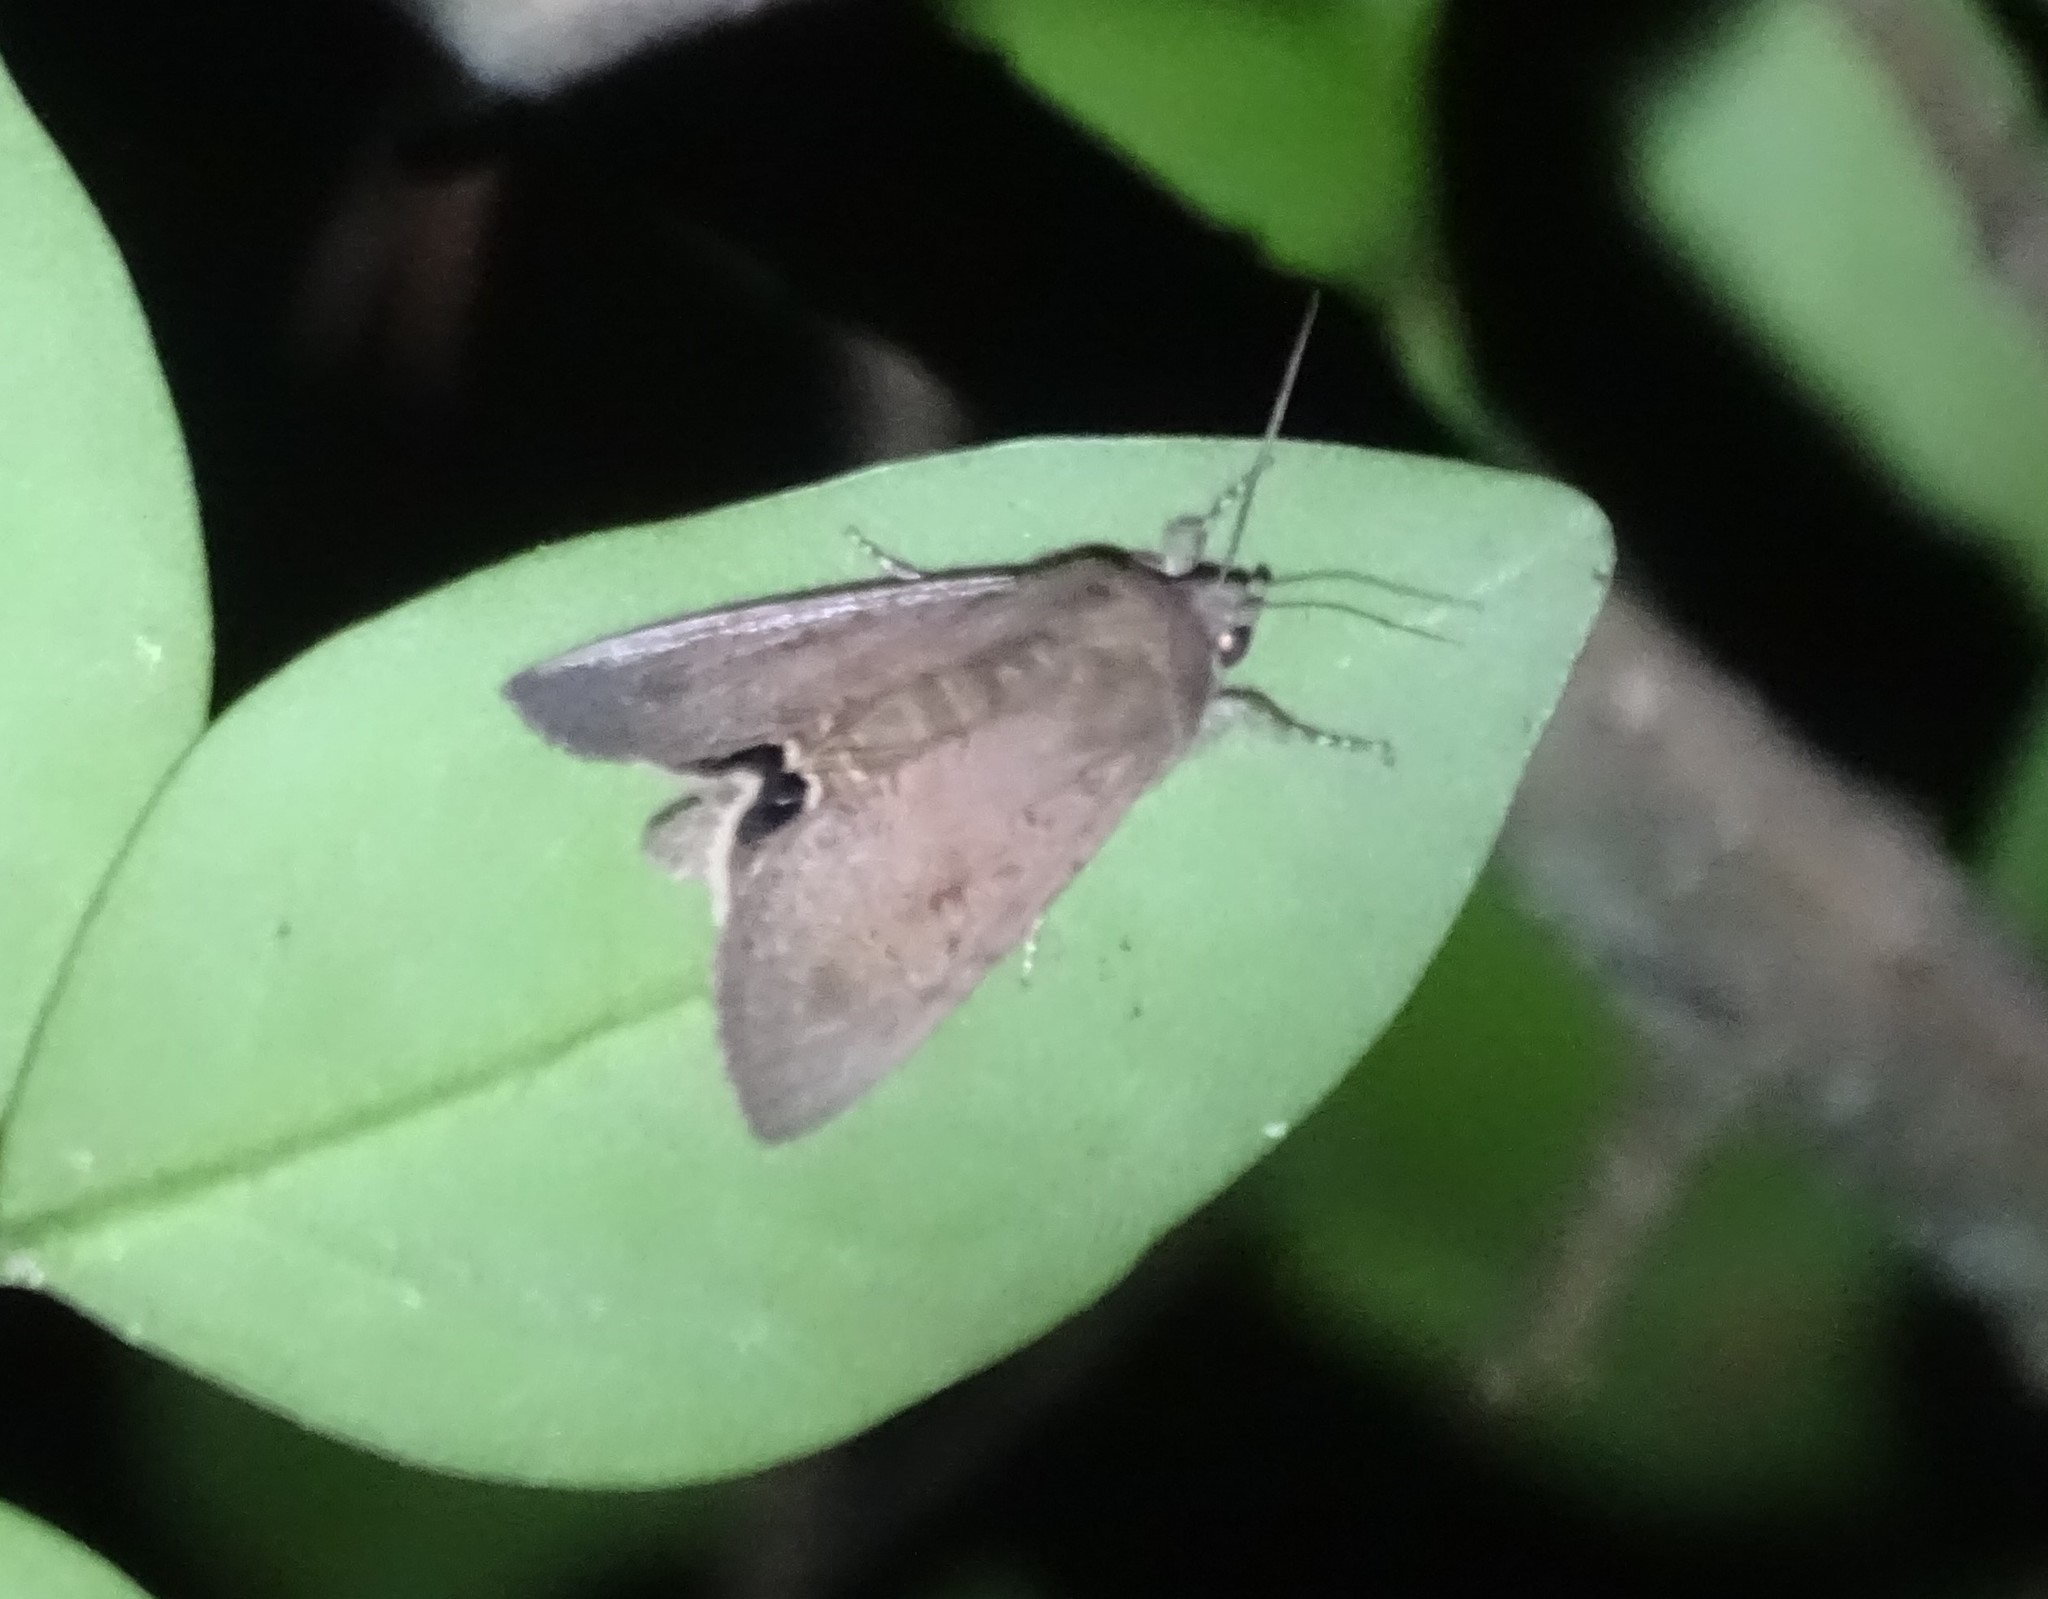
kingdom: Animalia
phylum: Arthropoda
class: Insecta
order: Lepidoptera
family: Erebidae
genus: Litoprosopus
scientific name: Litoprosopus futilis
